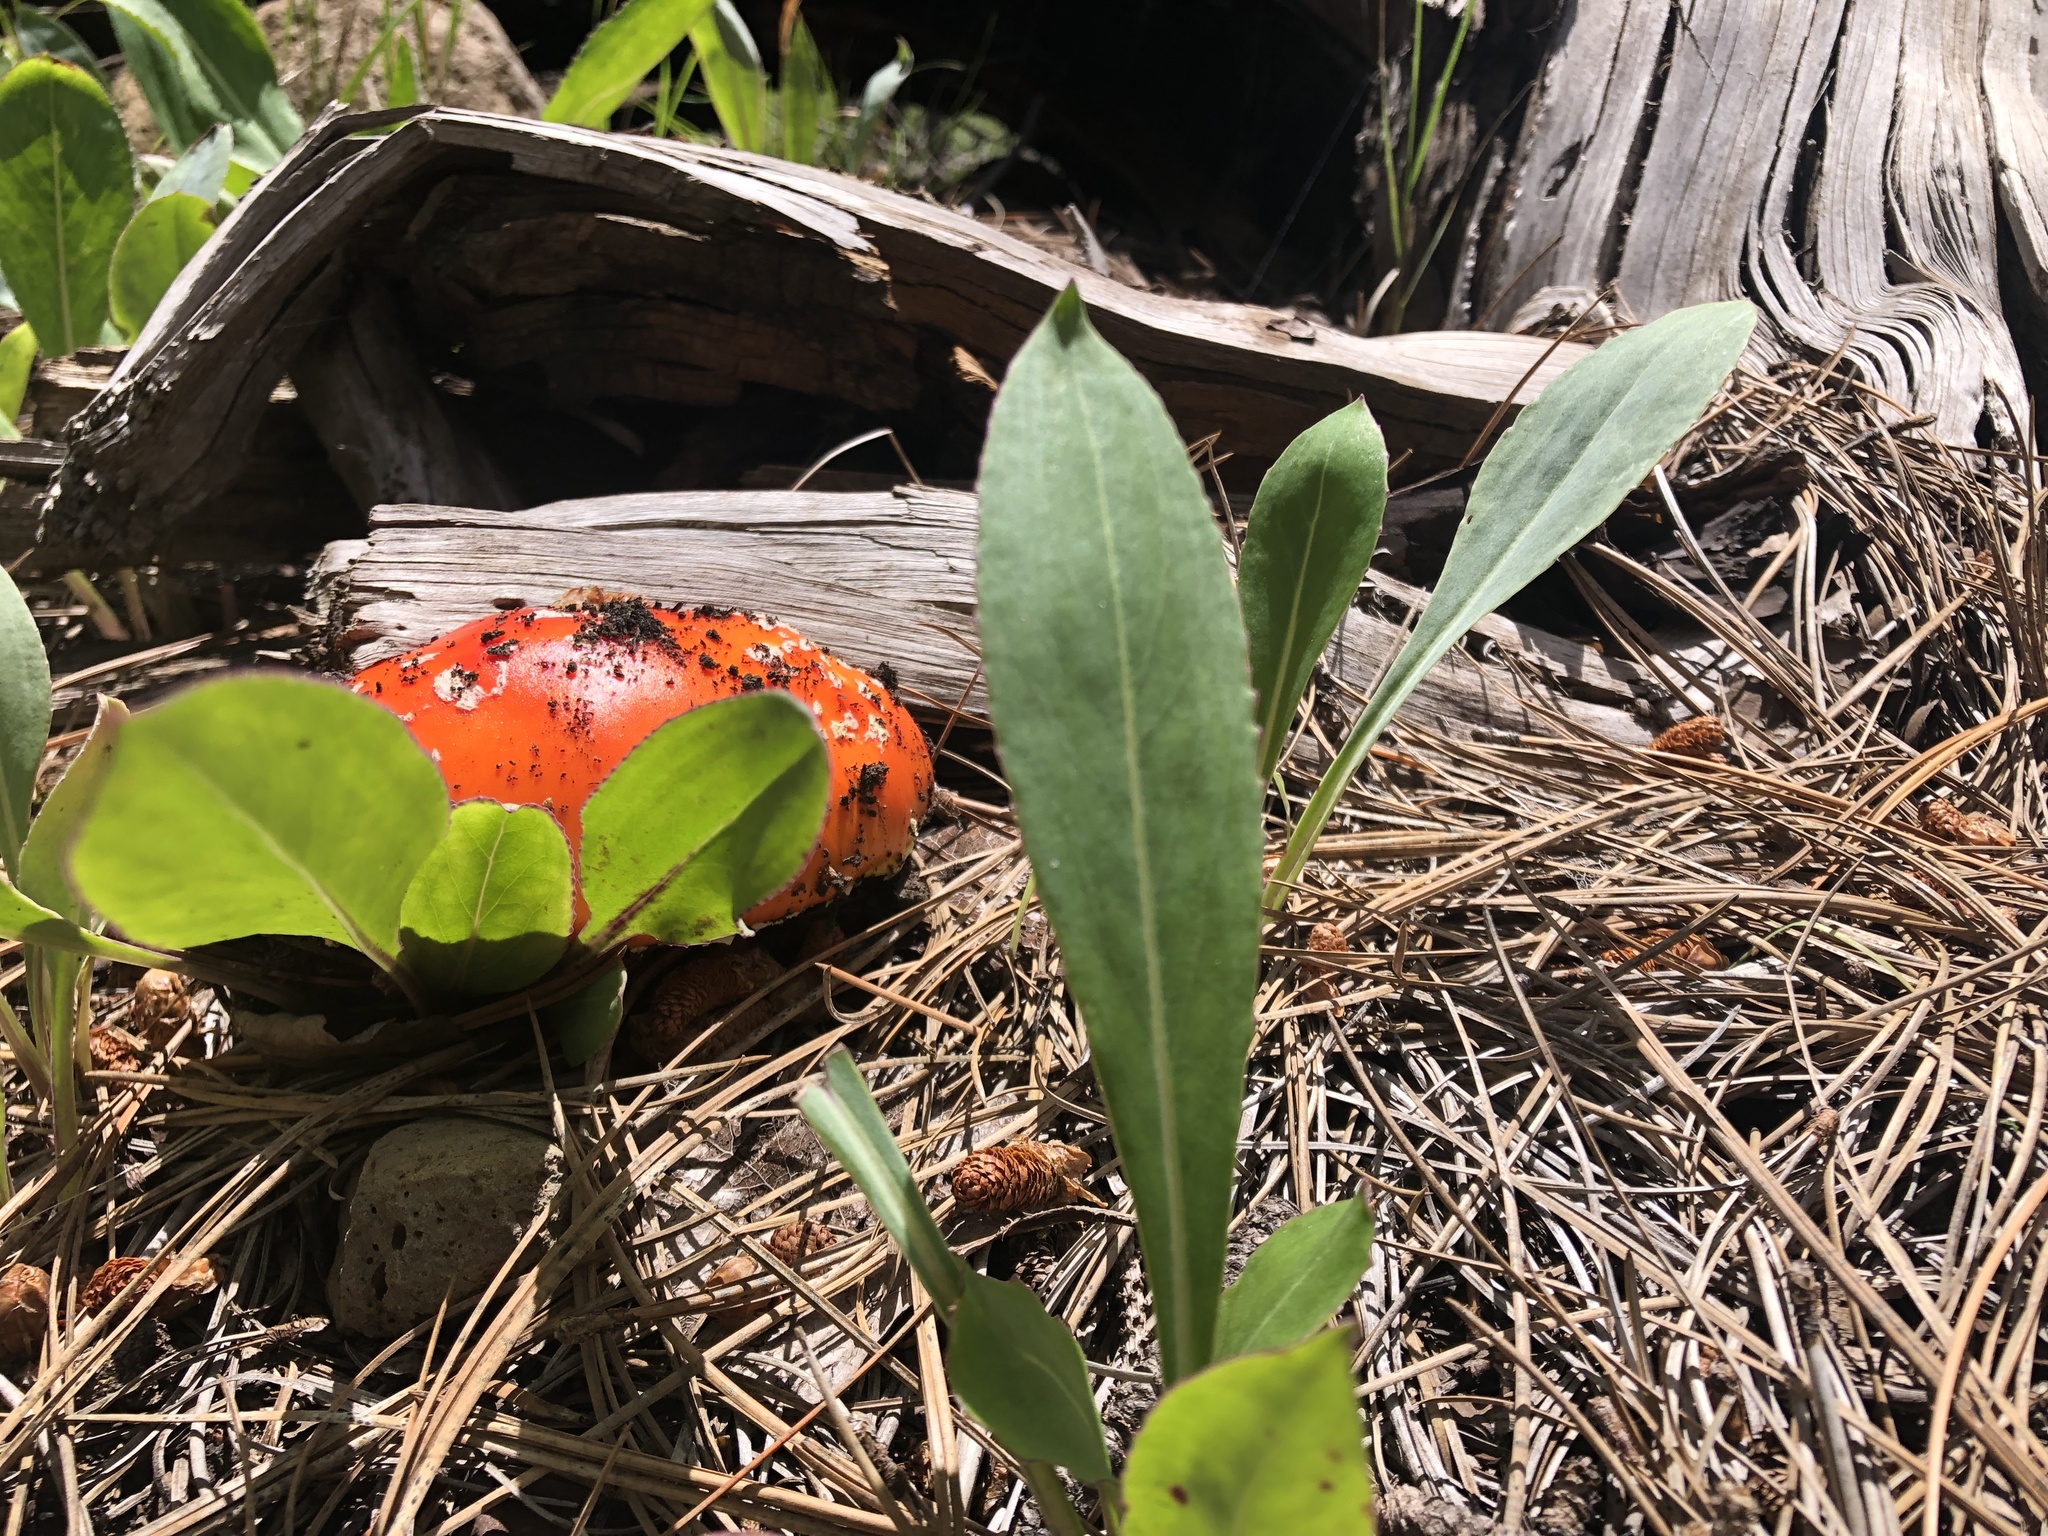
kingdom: Fungi
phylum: Basidiomycota
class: Agaricomycetes
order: Agaricales
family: Amanitaceae
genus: Amanita
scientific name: Amanita muscaria
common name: Fly agaric
